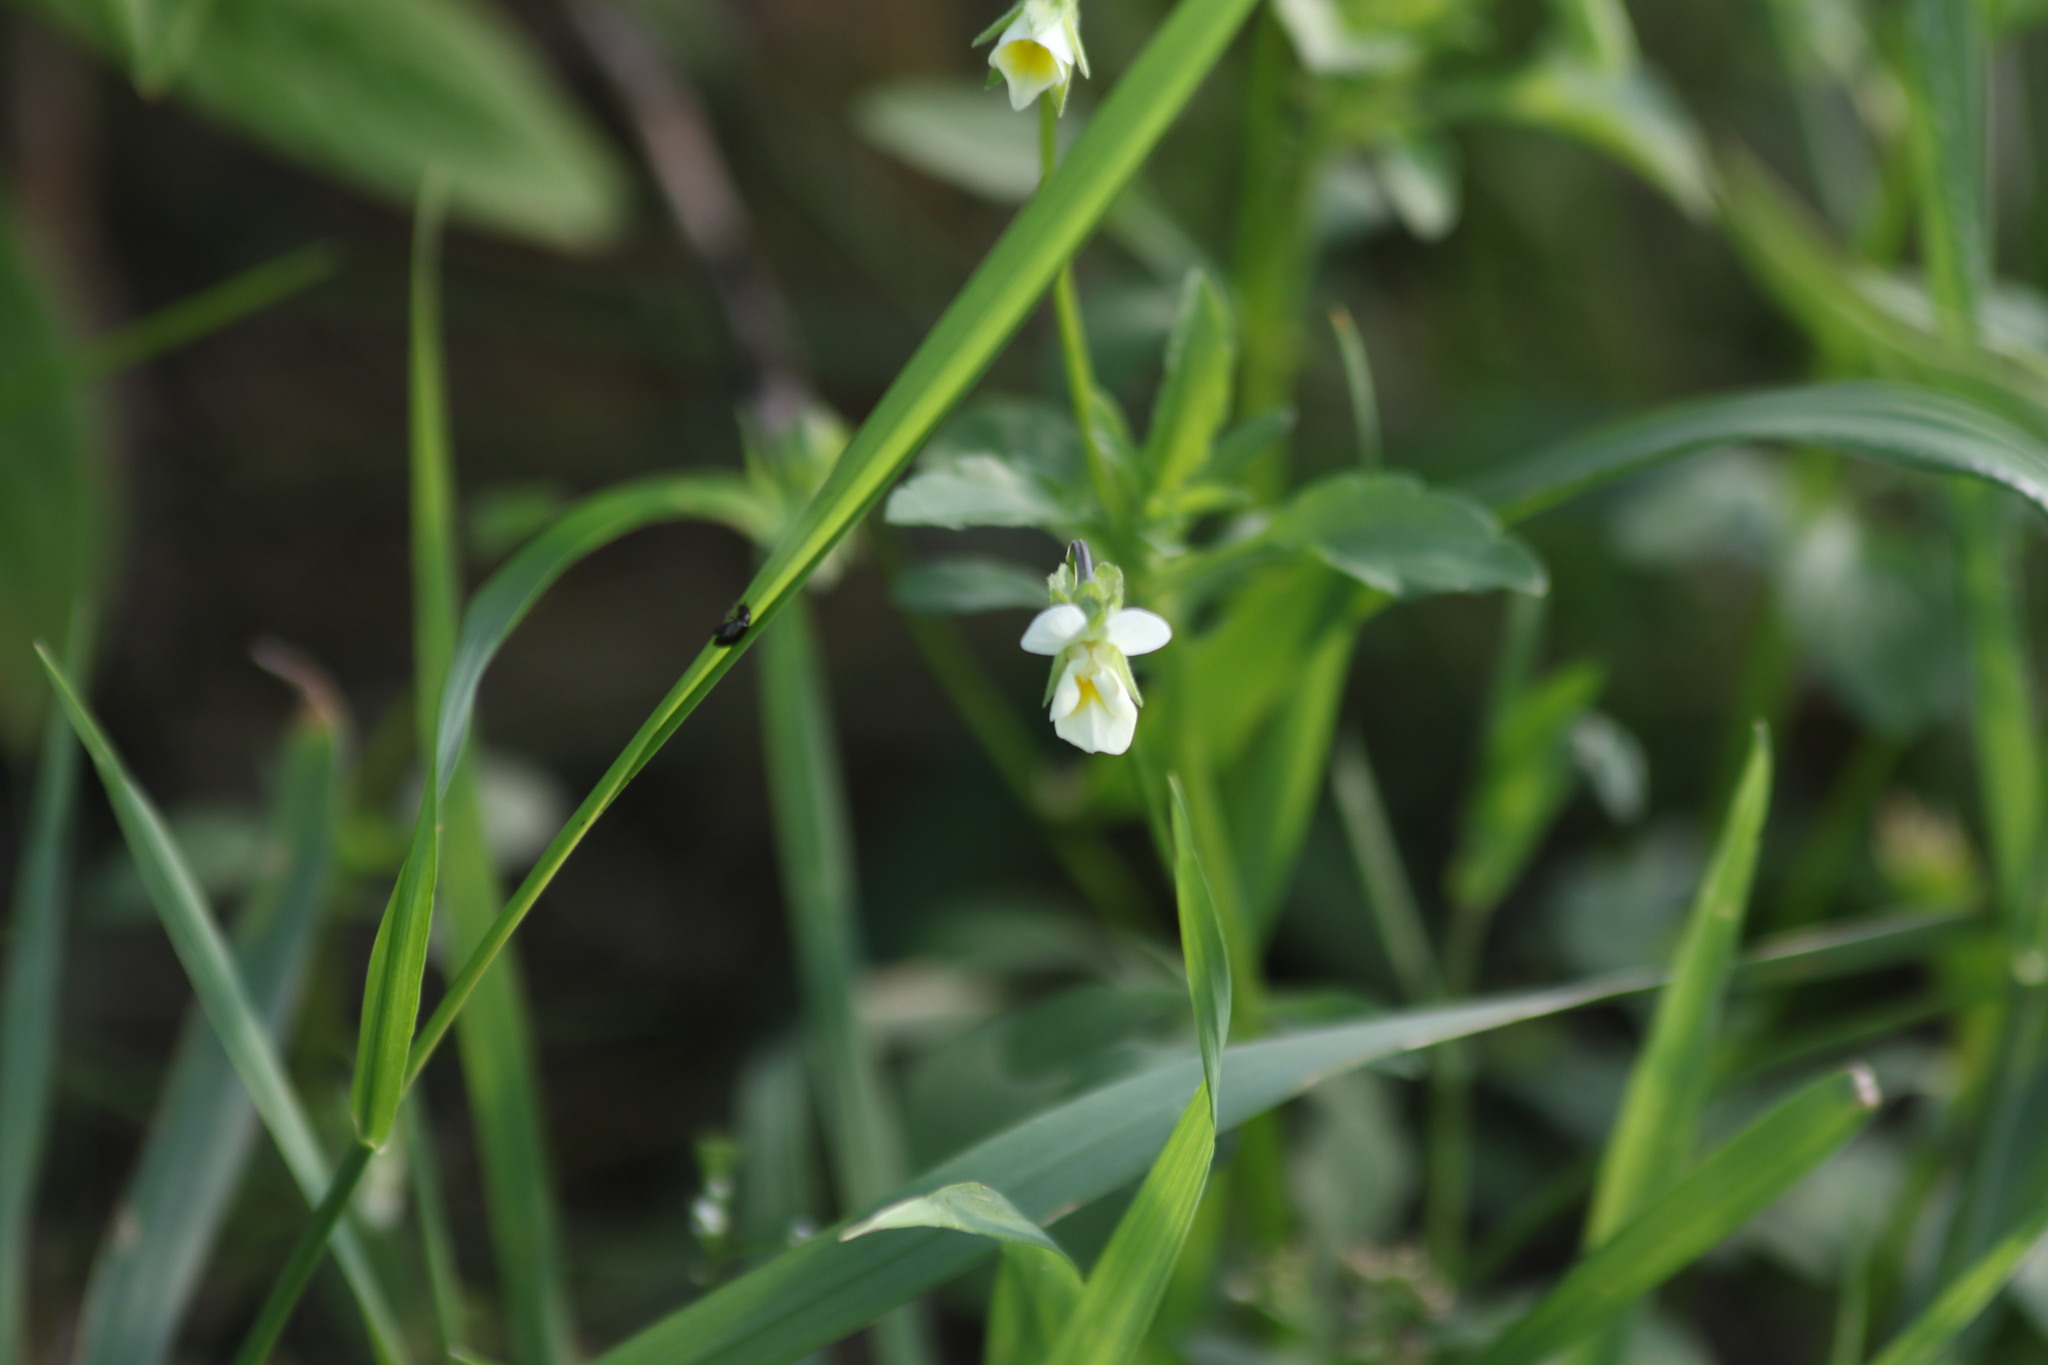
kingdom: Plantae
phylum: Tracheophyta
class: Magnoliopsida
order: Malpighiales
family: Violaceae
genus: Viola
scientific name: Viola arvensis
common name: Field pansy
